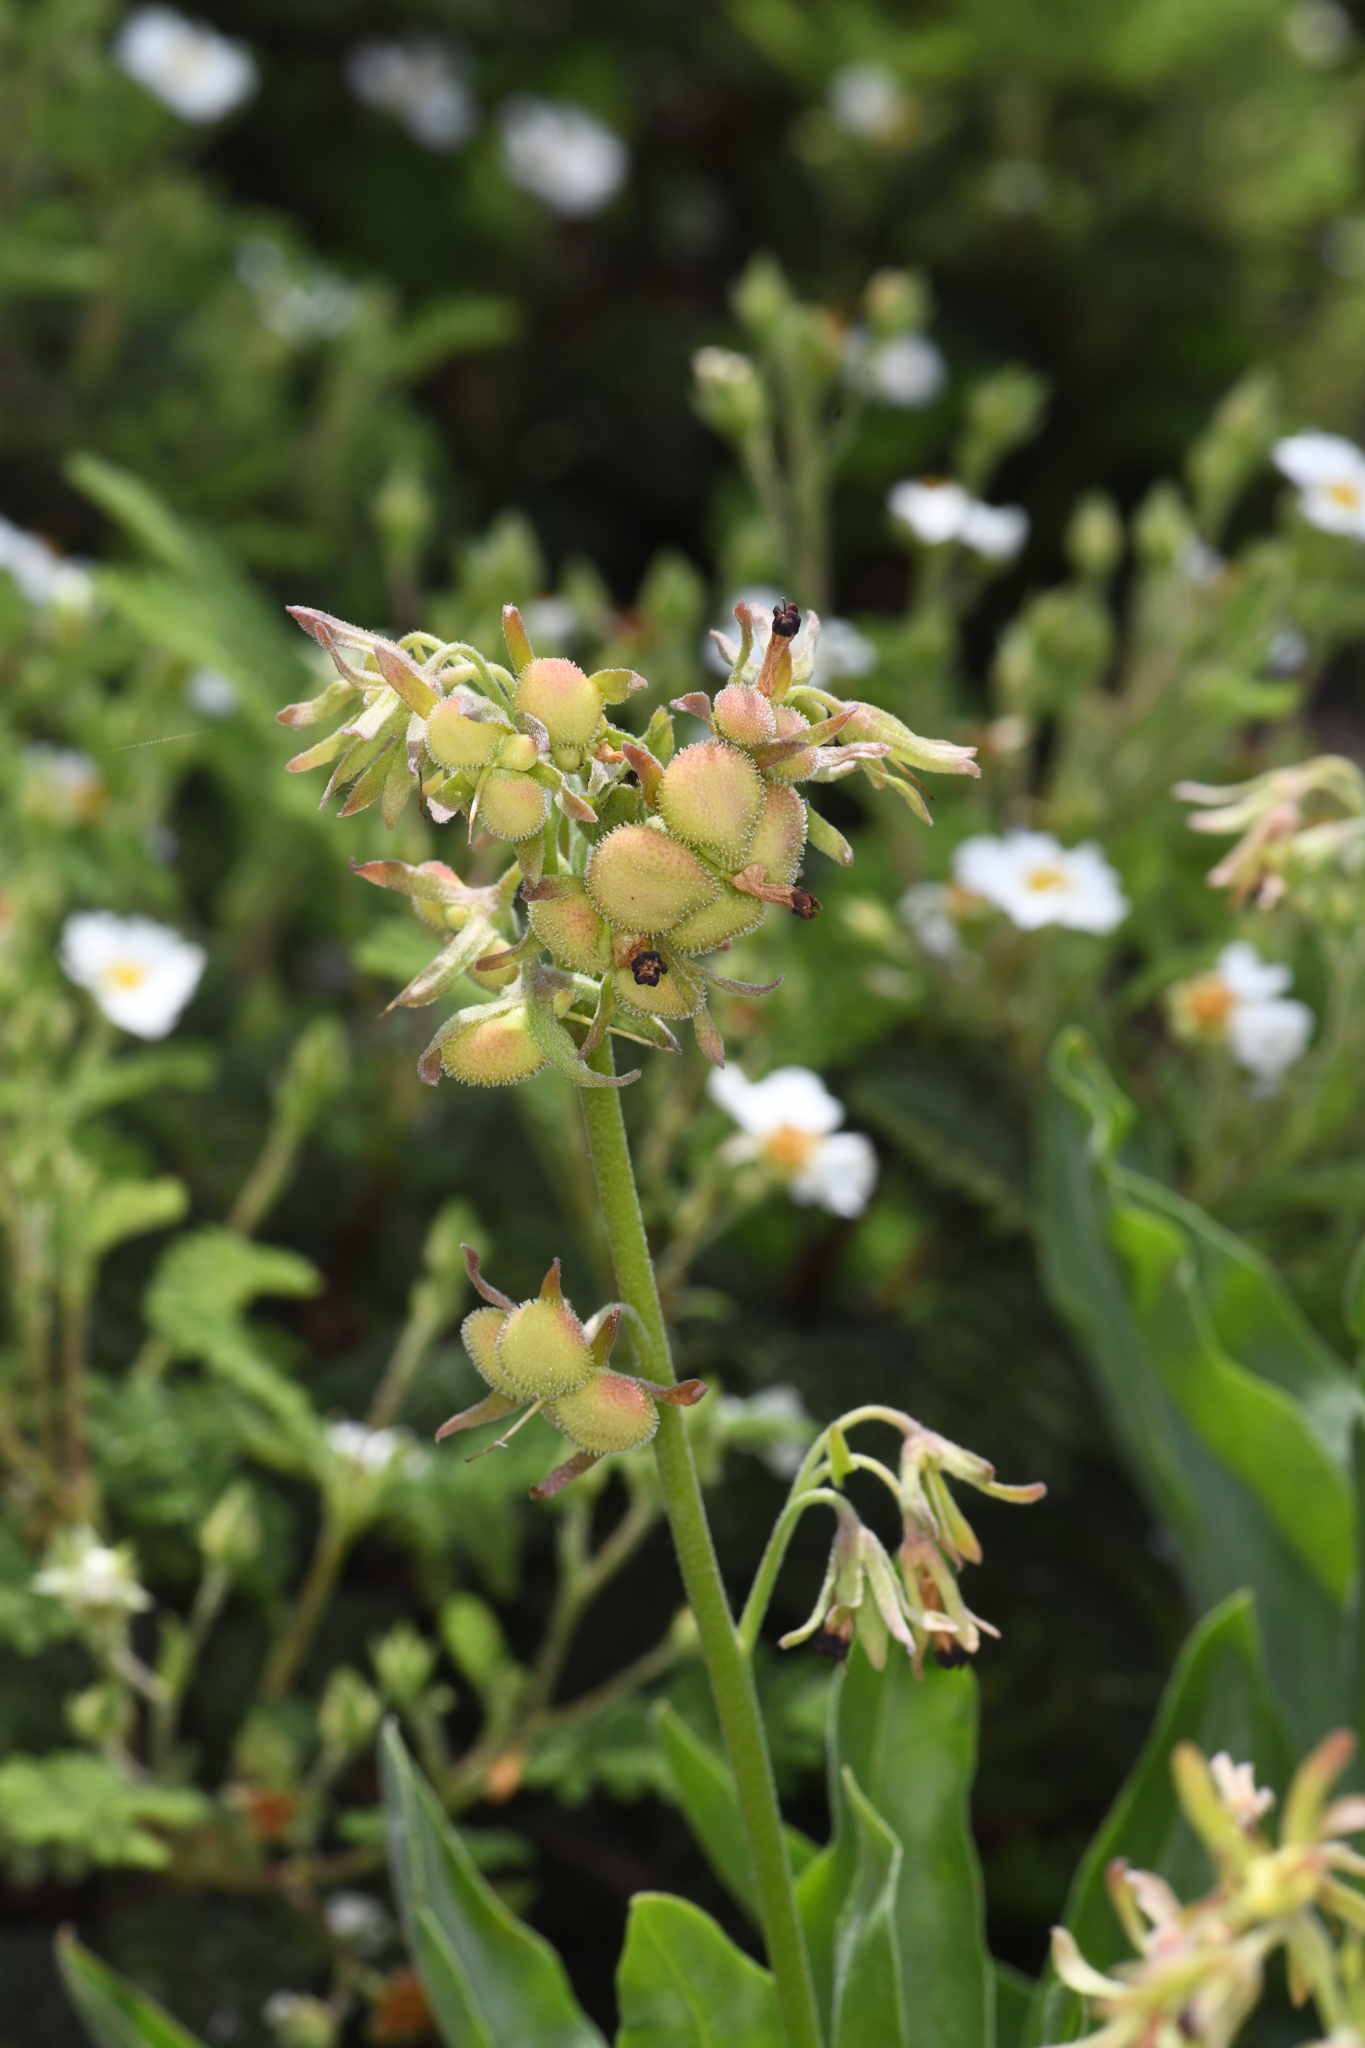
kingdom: Plantae
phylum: Tracheophyta
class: Magnoliopsida
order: Boraginales
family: Boraginaceae
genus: Andersonglossum
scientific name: Andersonglossum occidentale
